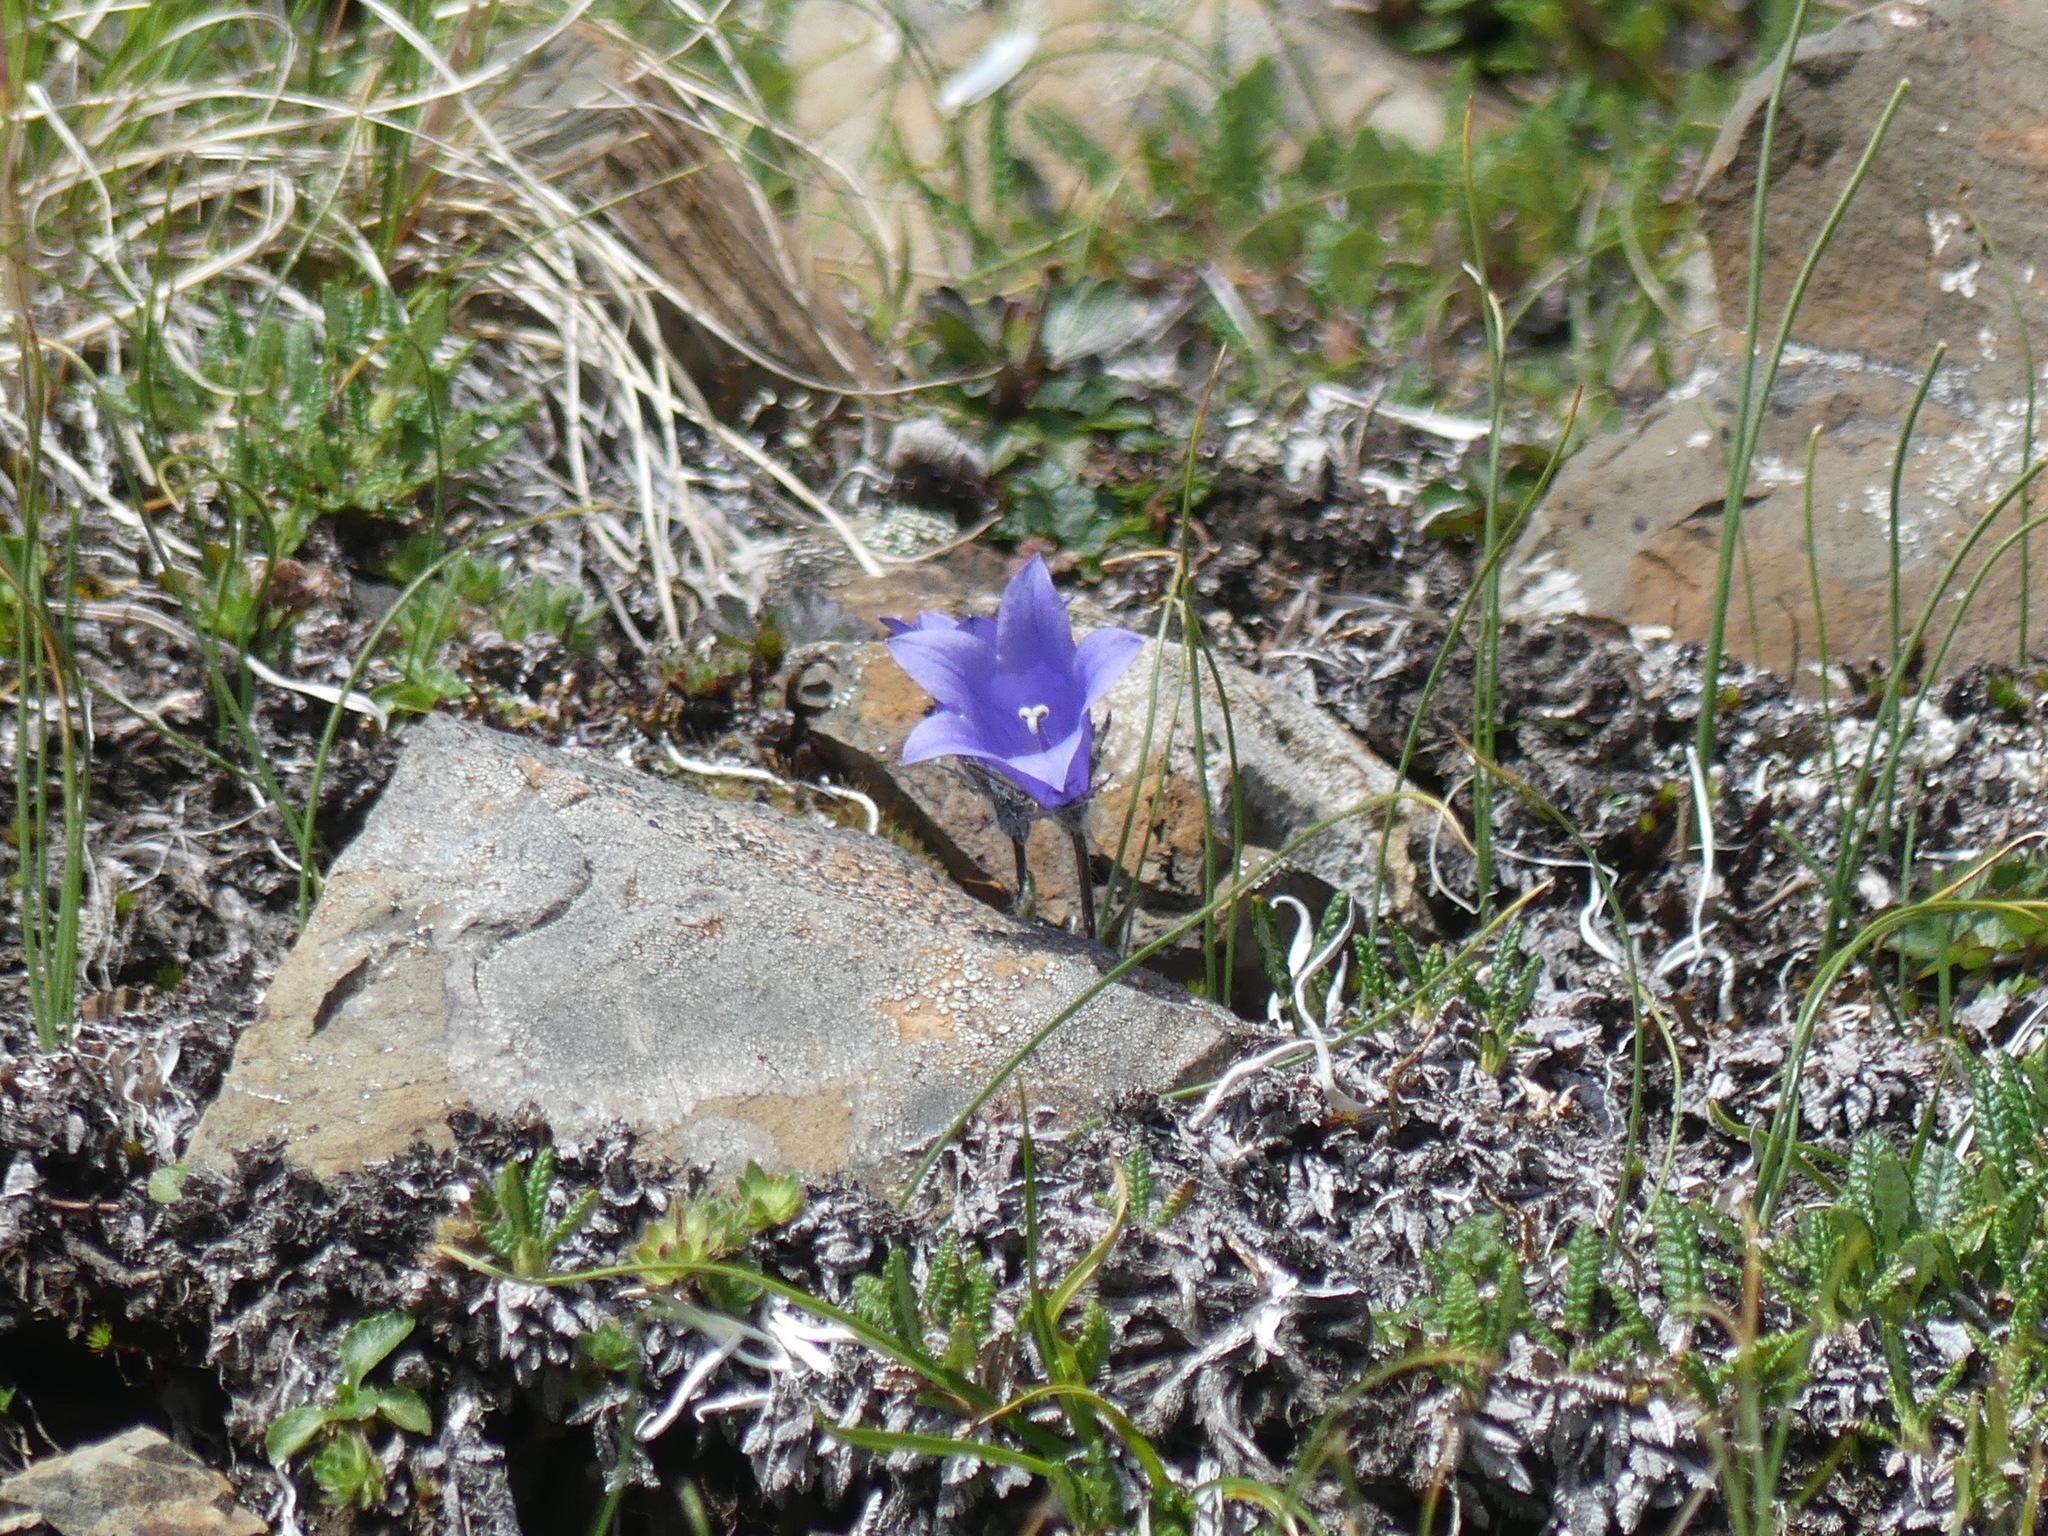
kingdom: Plantae
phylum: Tracheophyta
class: Magnoliopsida
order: Asterales
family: Campanulaceae
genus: Campanula
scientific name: Campanula lasiocarpa
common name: Mountain harebell
